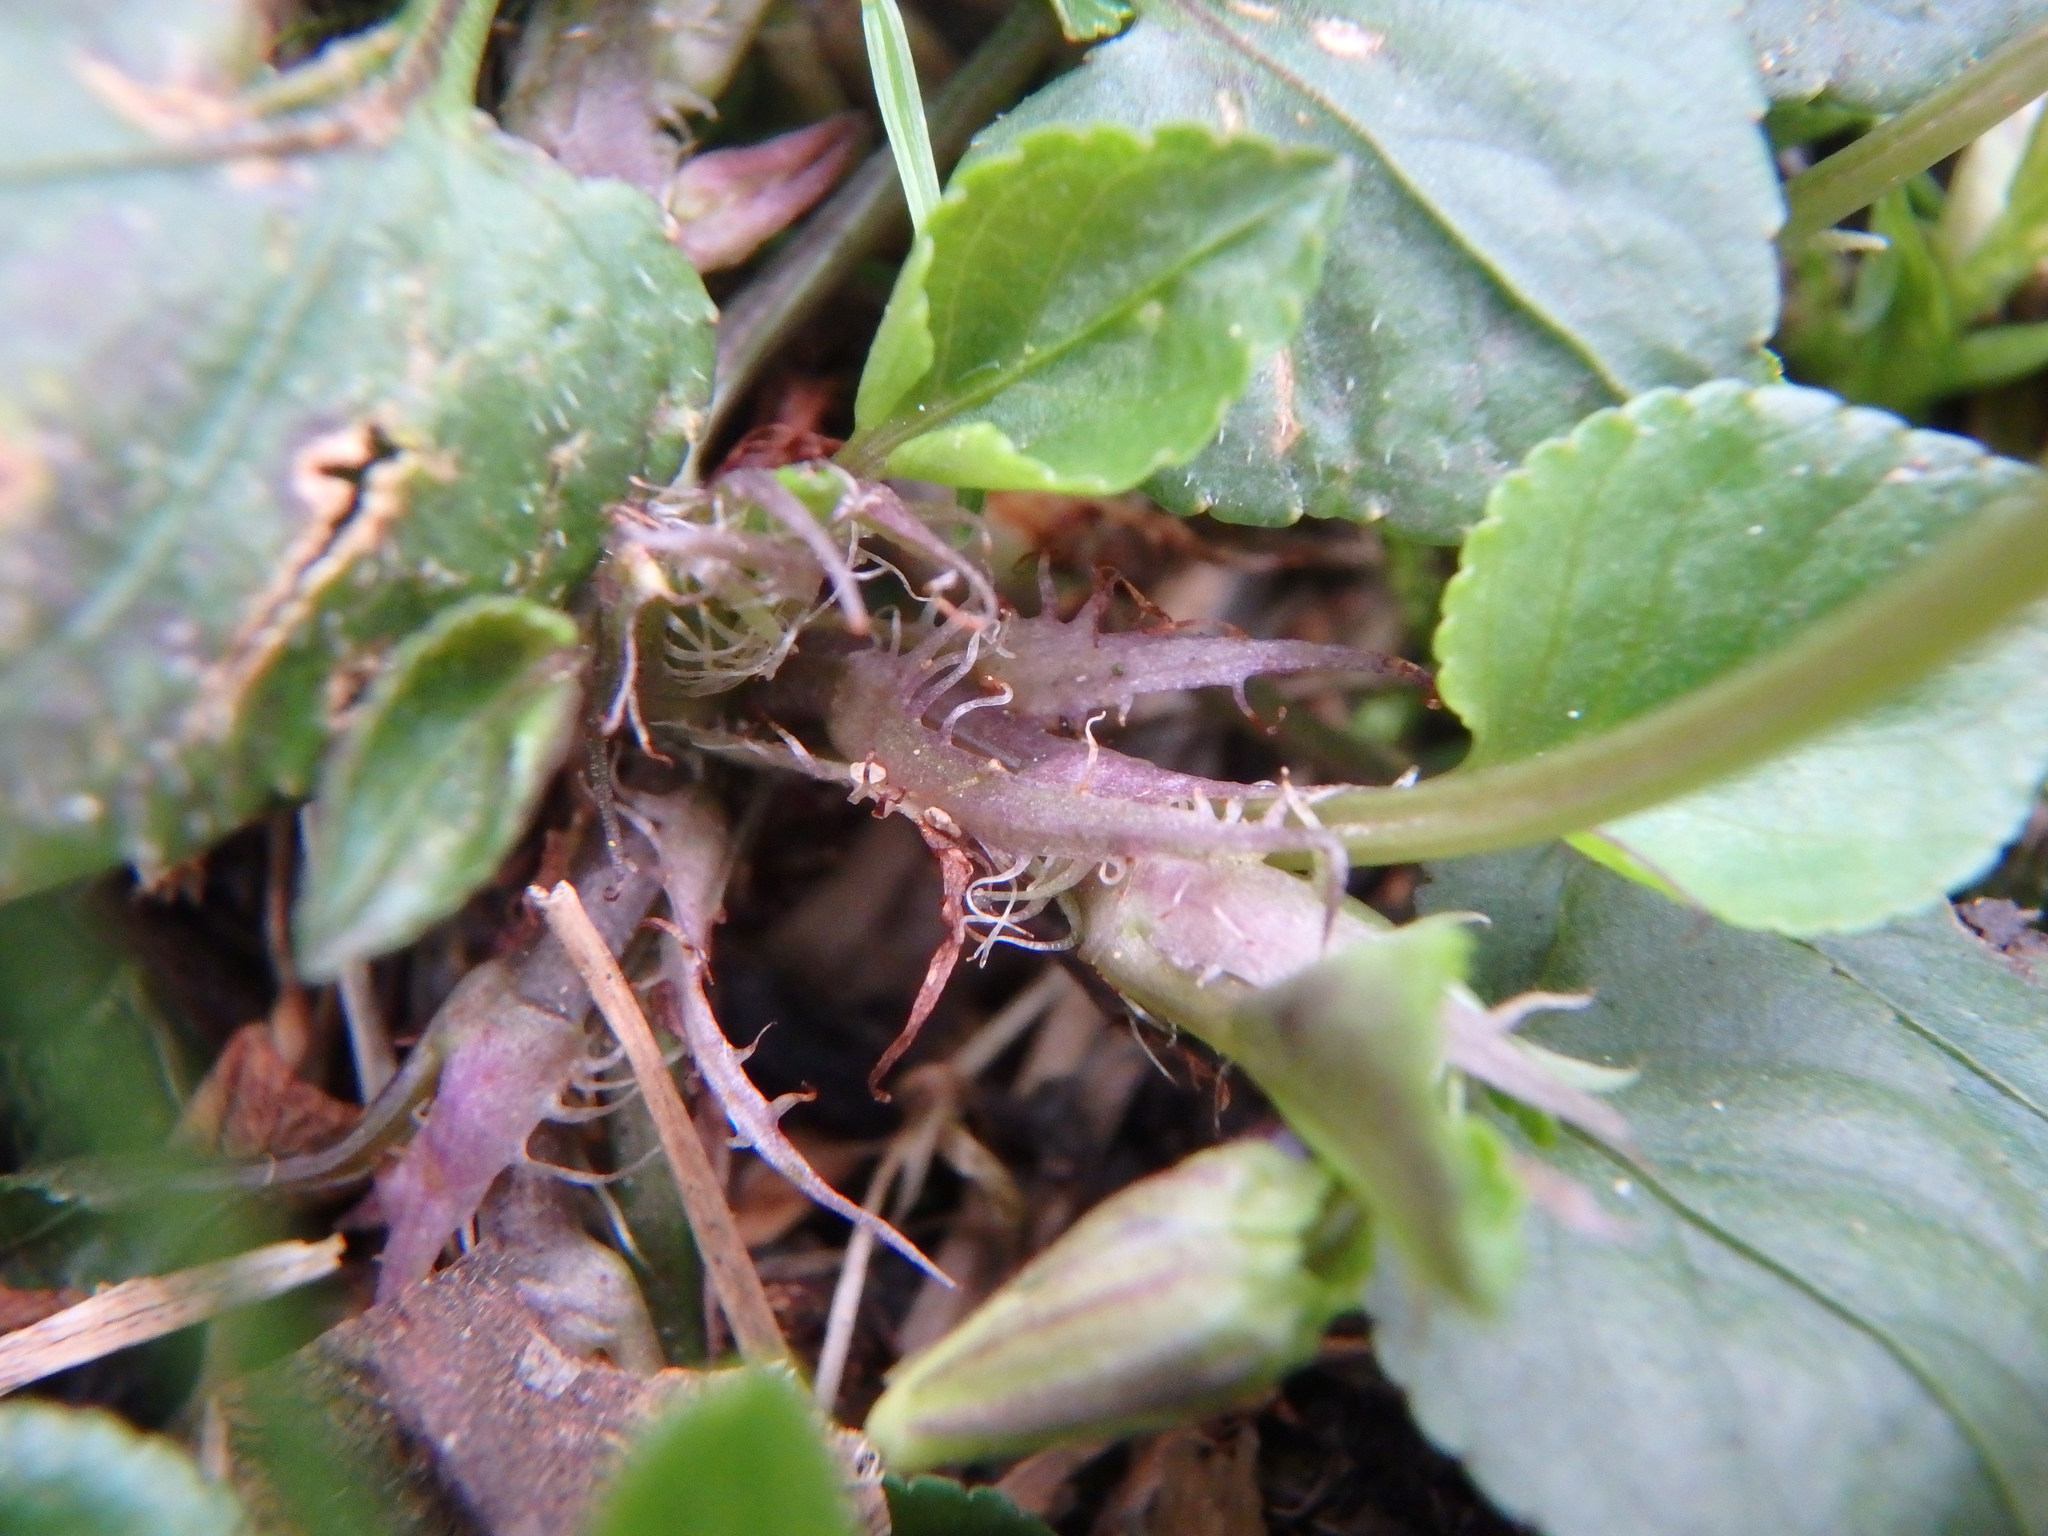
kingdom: Plantae
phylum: Tracheophyta
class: Magnoliopsida
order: Malpighiales
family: Violaceae
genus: Viola
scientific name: Viola reichenbachiana
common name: Early dog-violet
